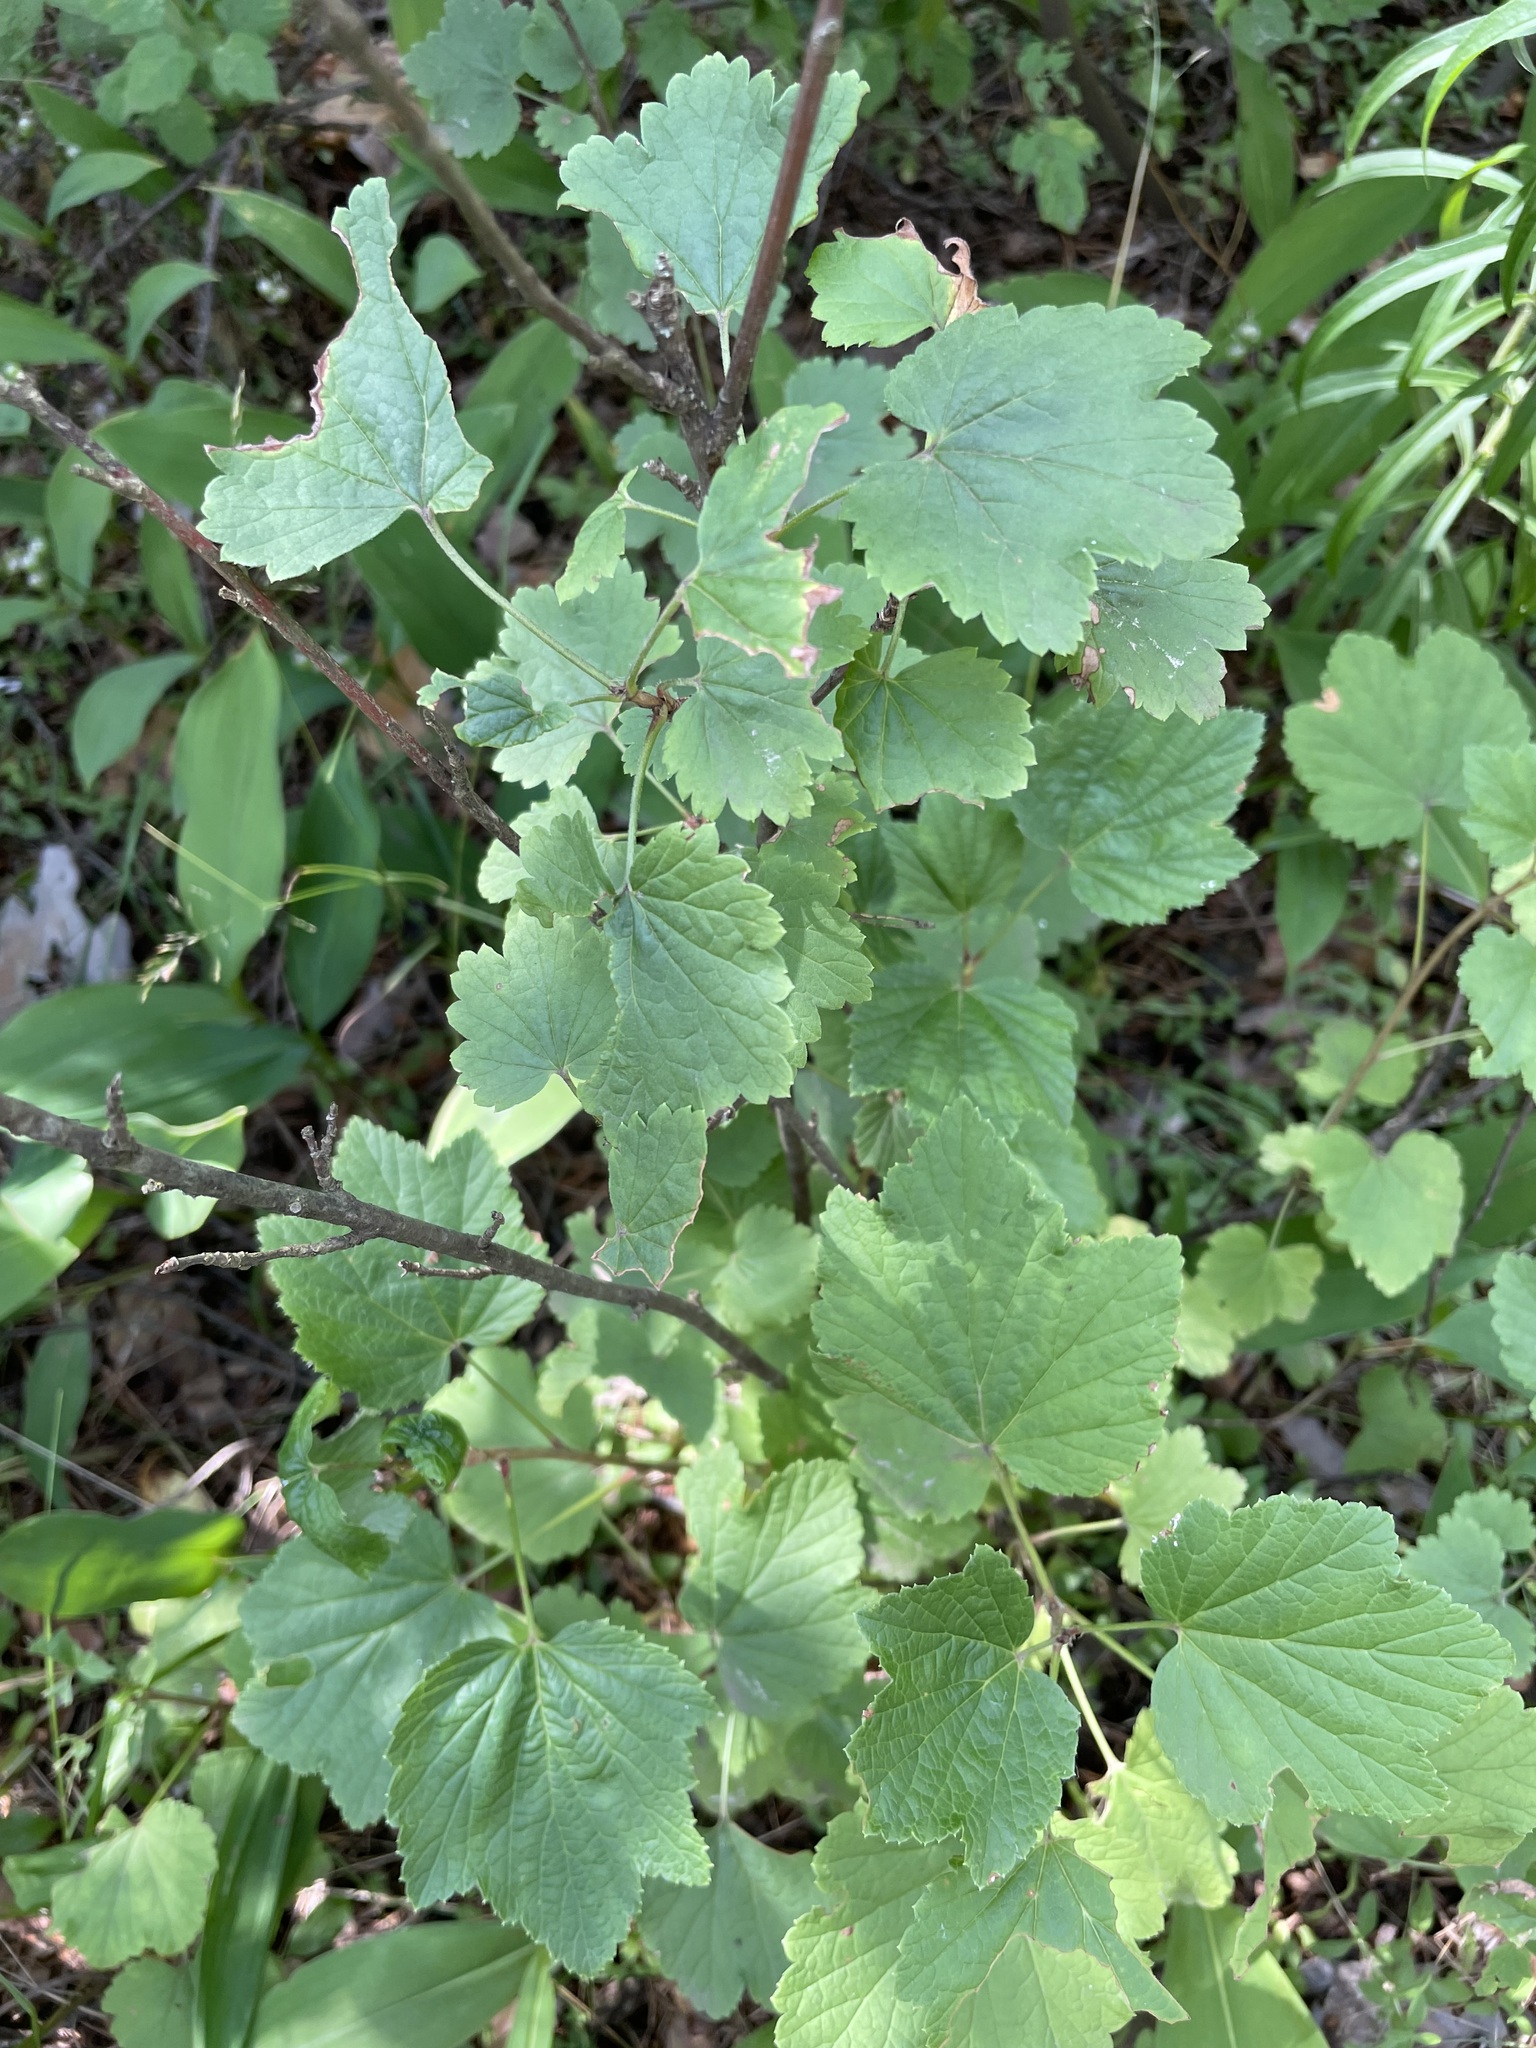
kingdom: Plantae
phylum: Tracheophyta
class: Magnoliopsida
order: Saxifragales
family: Grossulariaceae
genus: Ribes
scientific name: Ribes spicatum
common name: Downy currant
